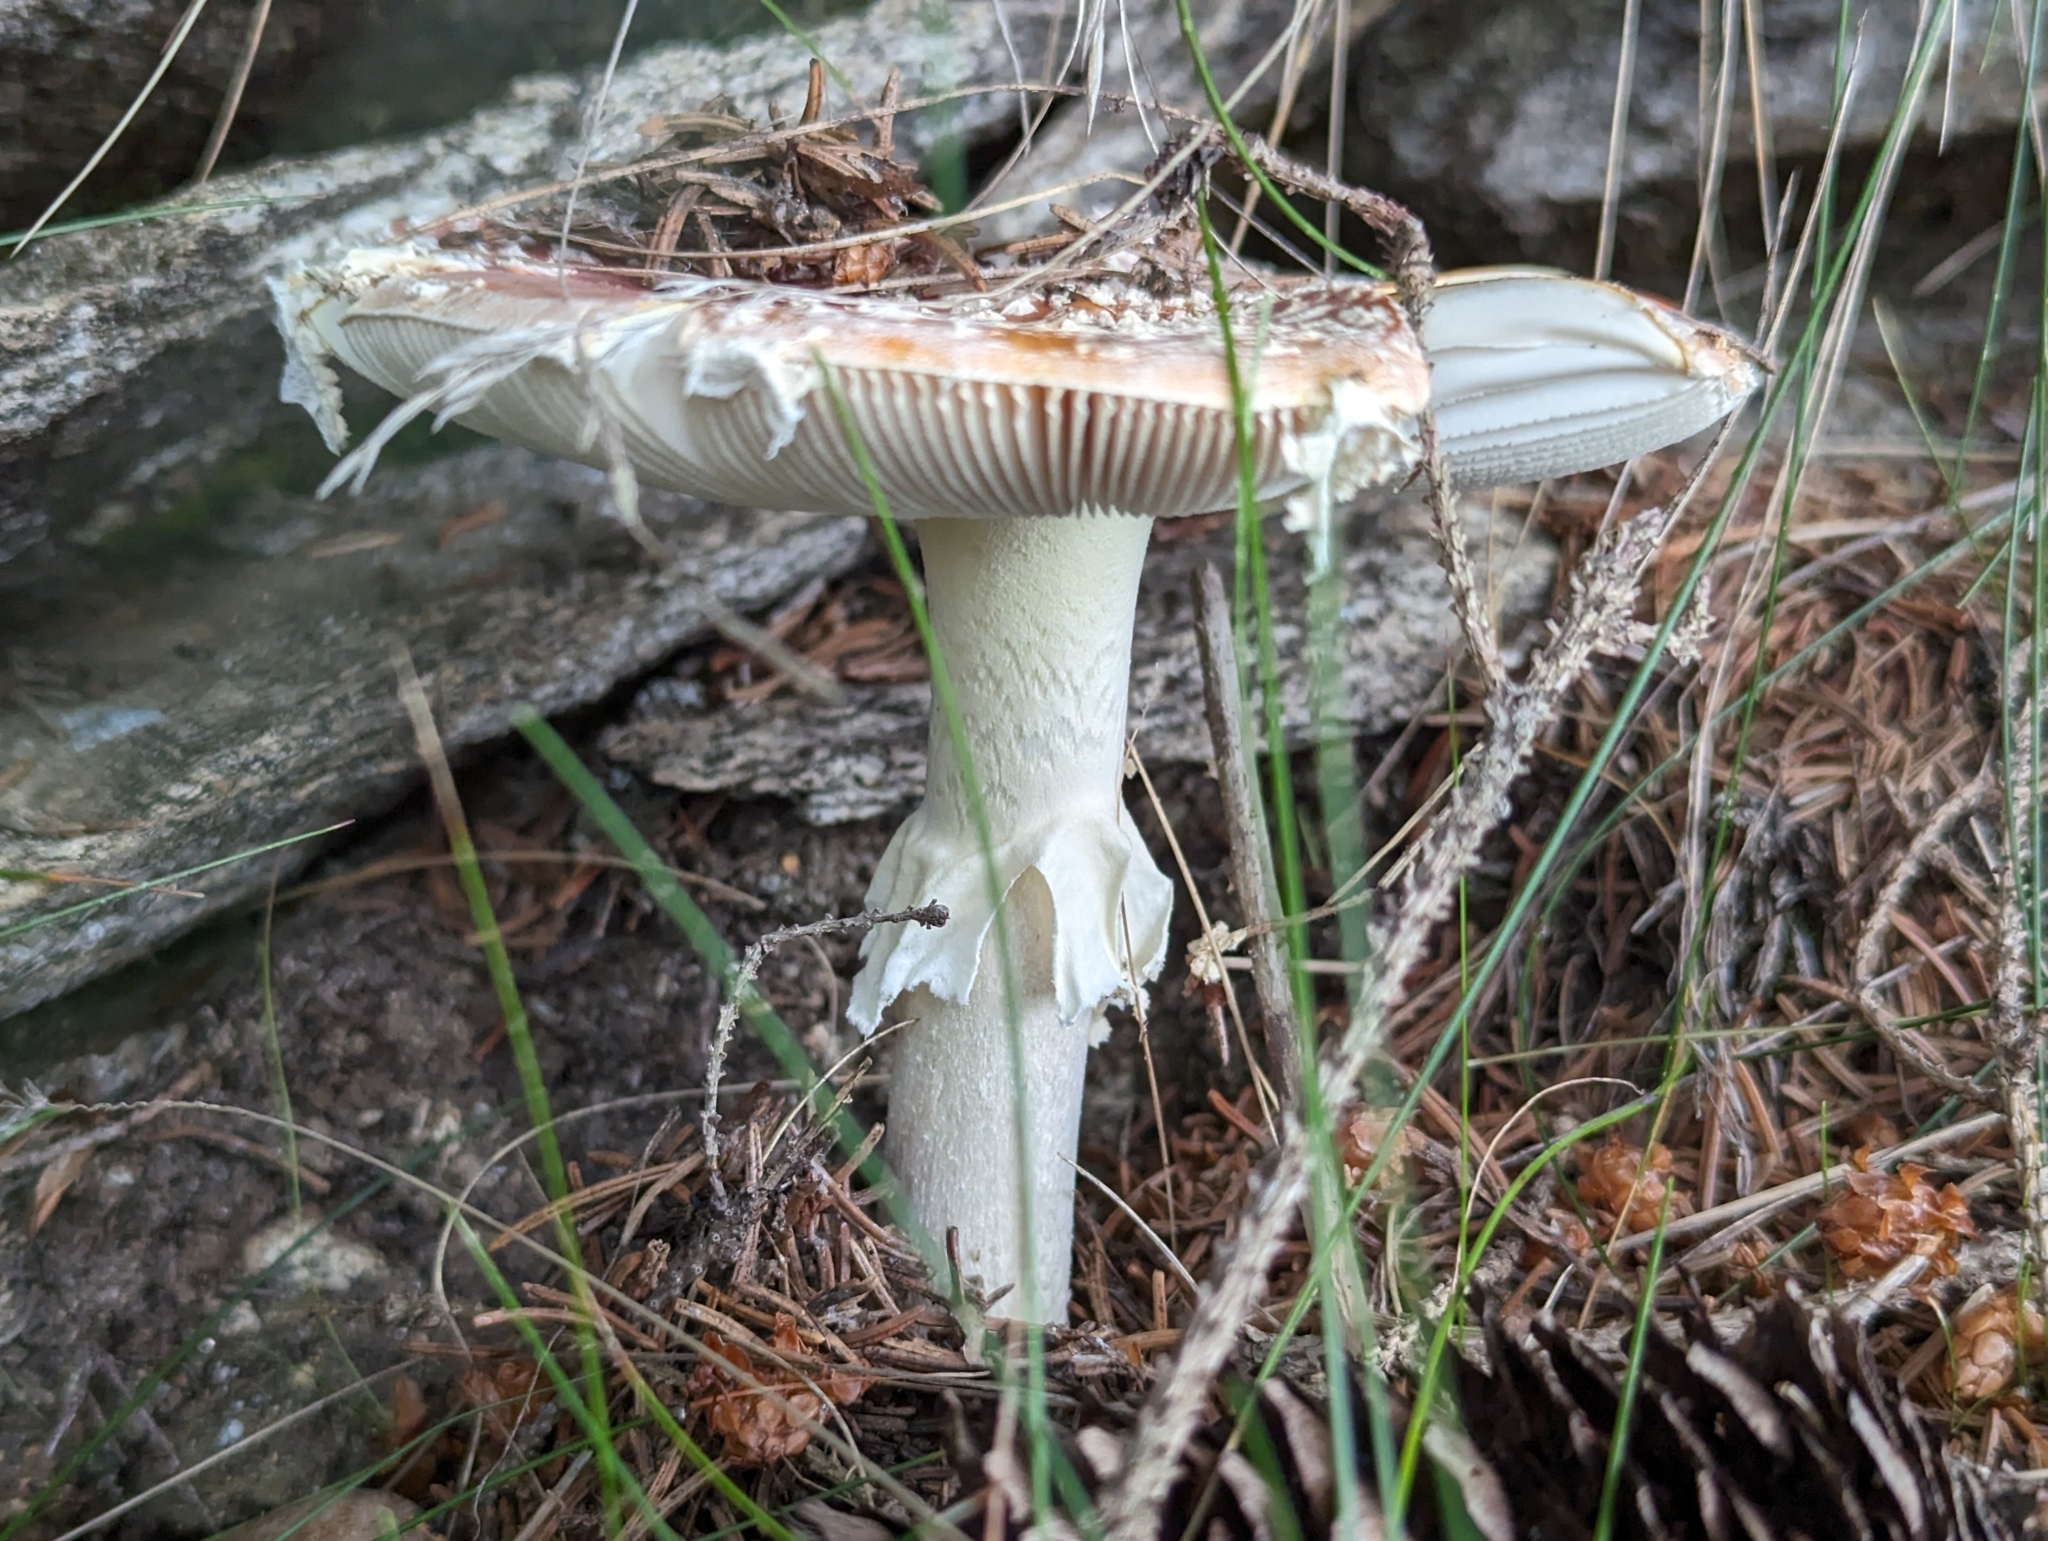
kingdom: Fungi
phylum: Basidiomycota
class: Agaricomycetes
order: Agaricales
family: Amanitaceae
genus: Amanita
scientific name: Amanita muscaria
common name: Fly agaric
